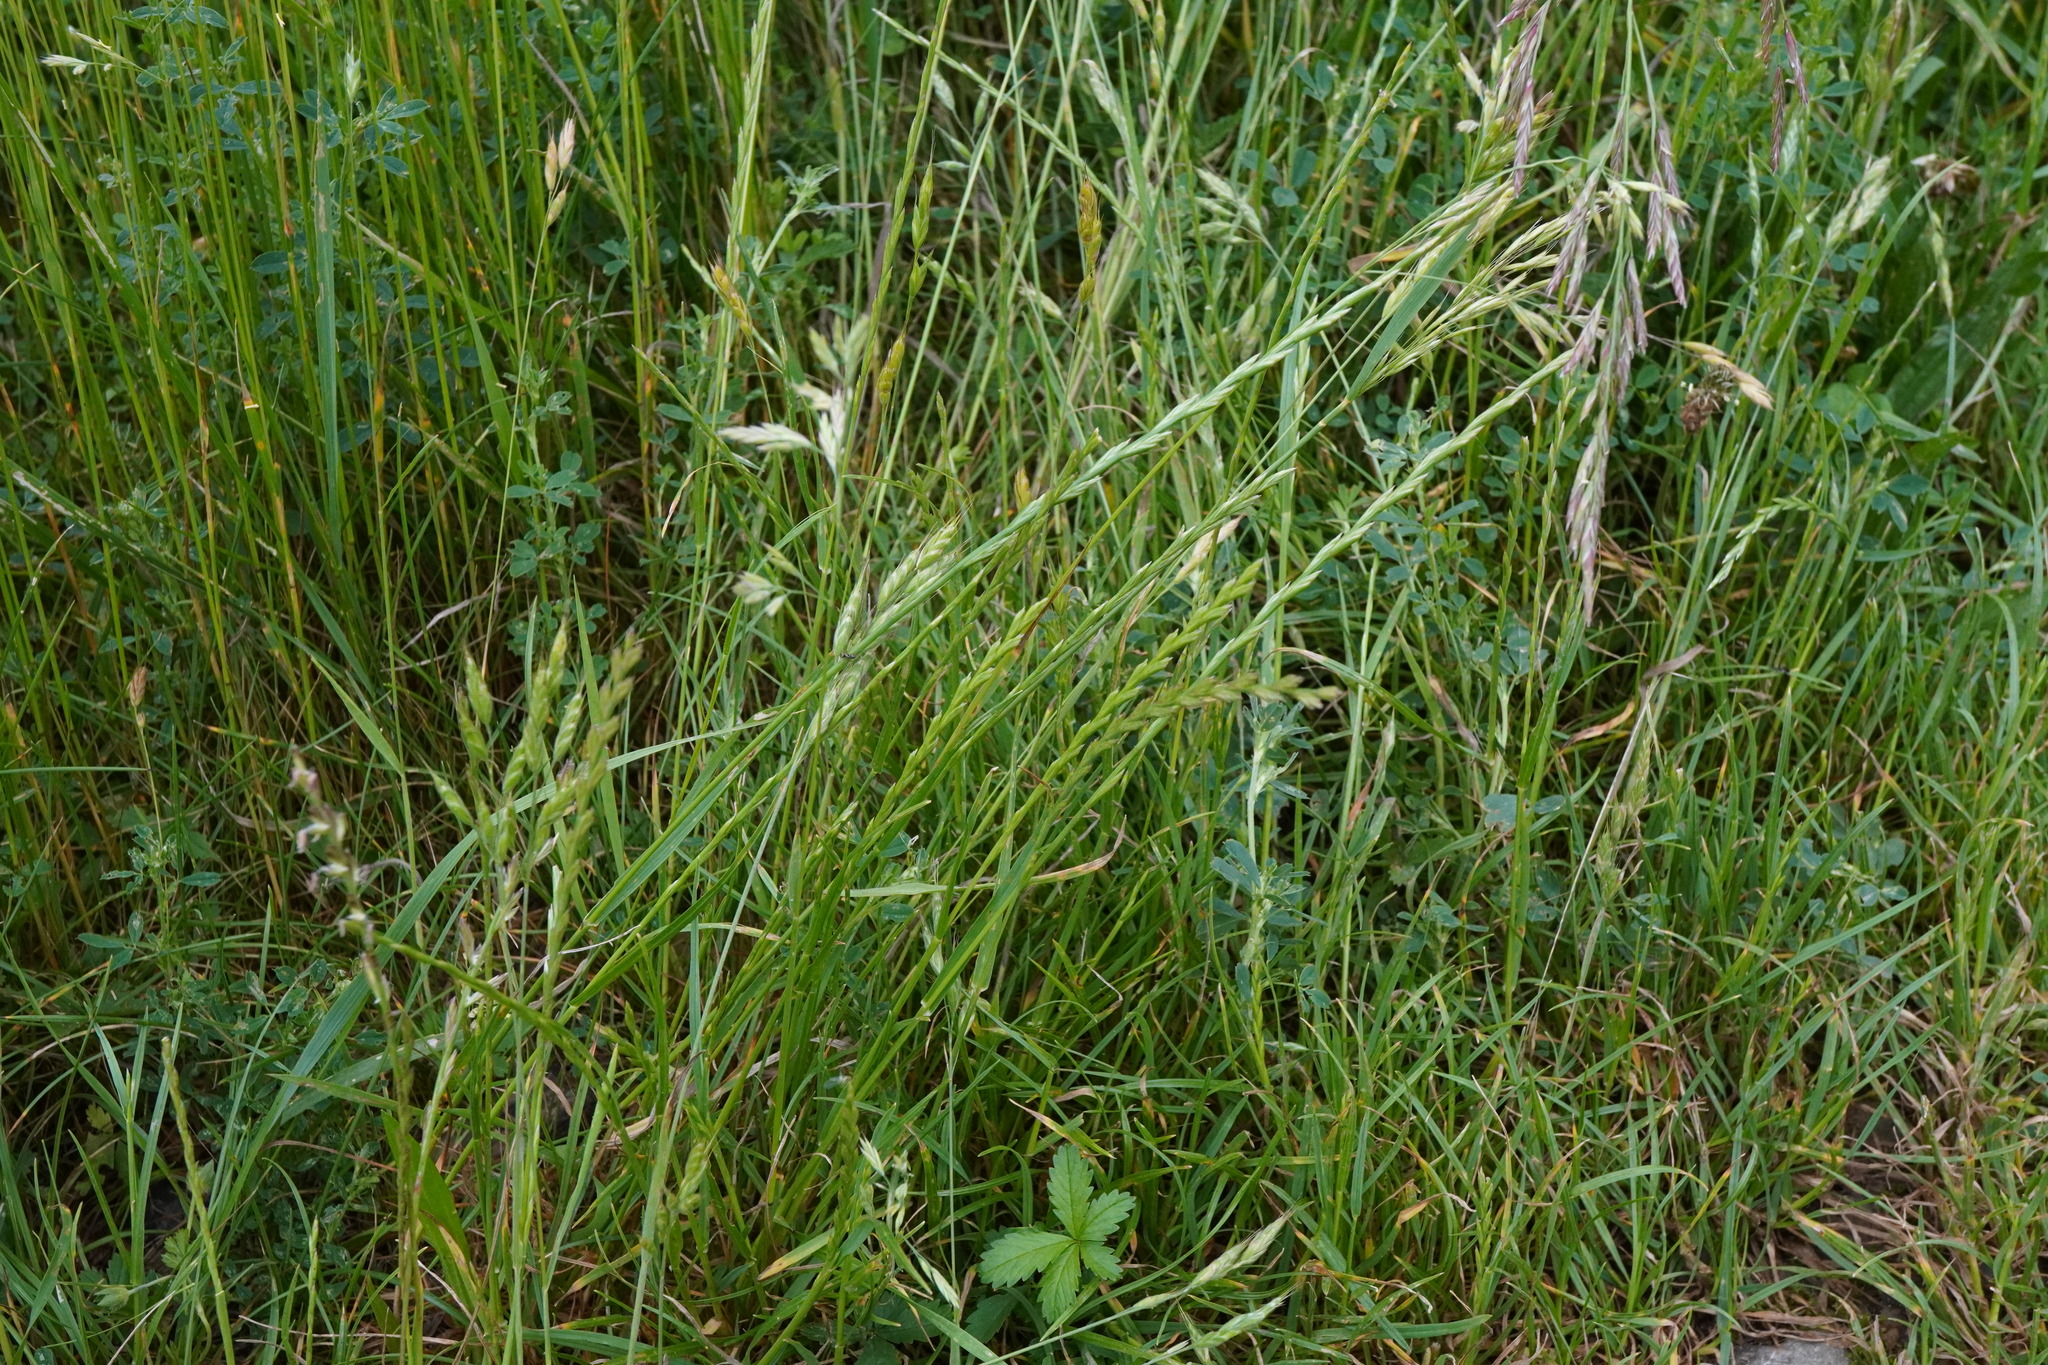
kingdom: Plantae
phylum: Tracheophyta
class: Liliopsida
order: Poales
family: Poaceae
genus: Lolium
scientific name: Lolium perenne
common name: Perennial ryegrass
